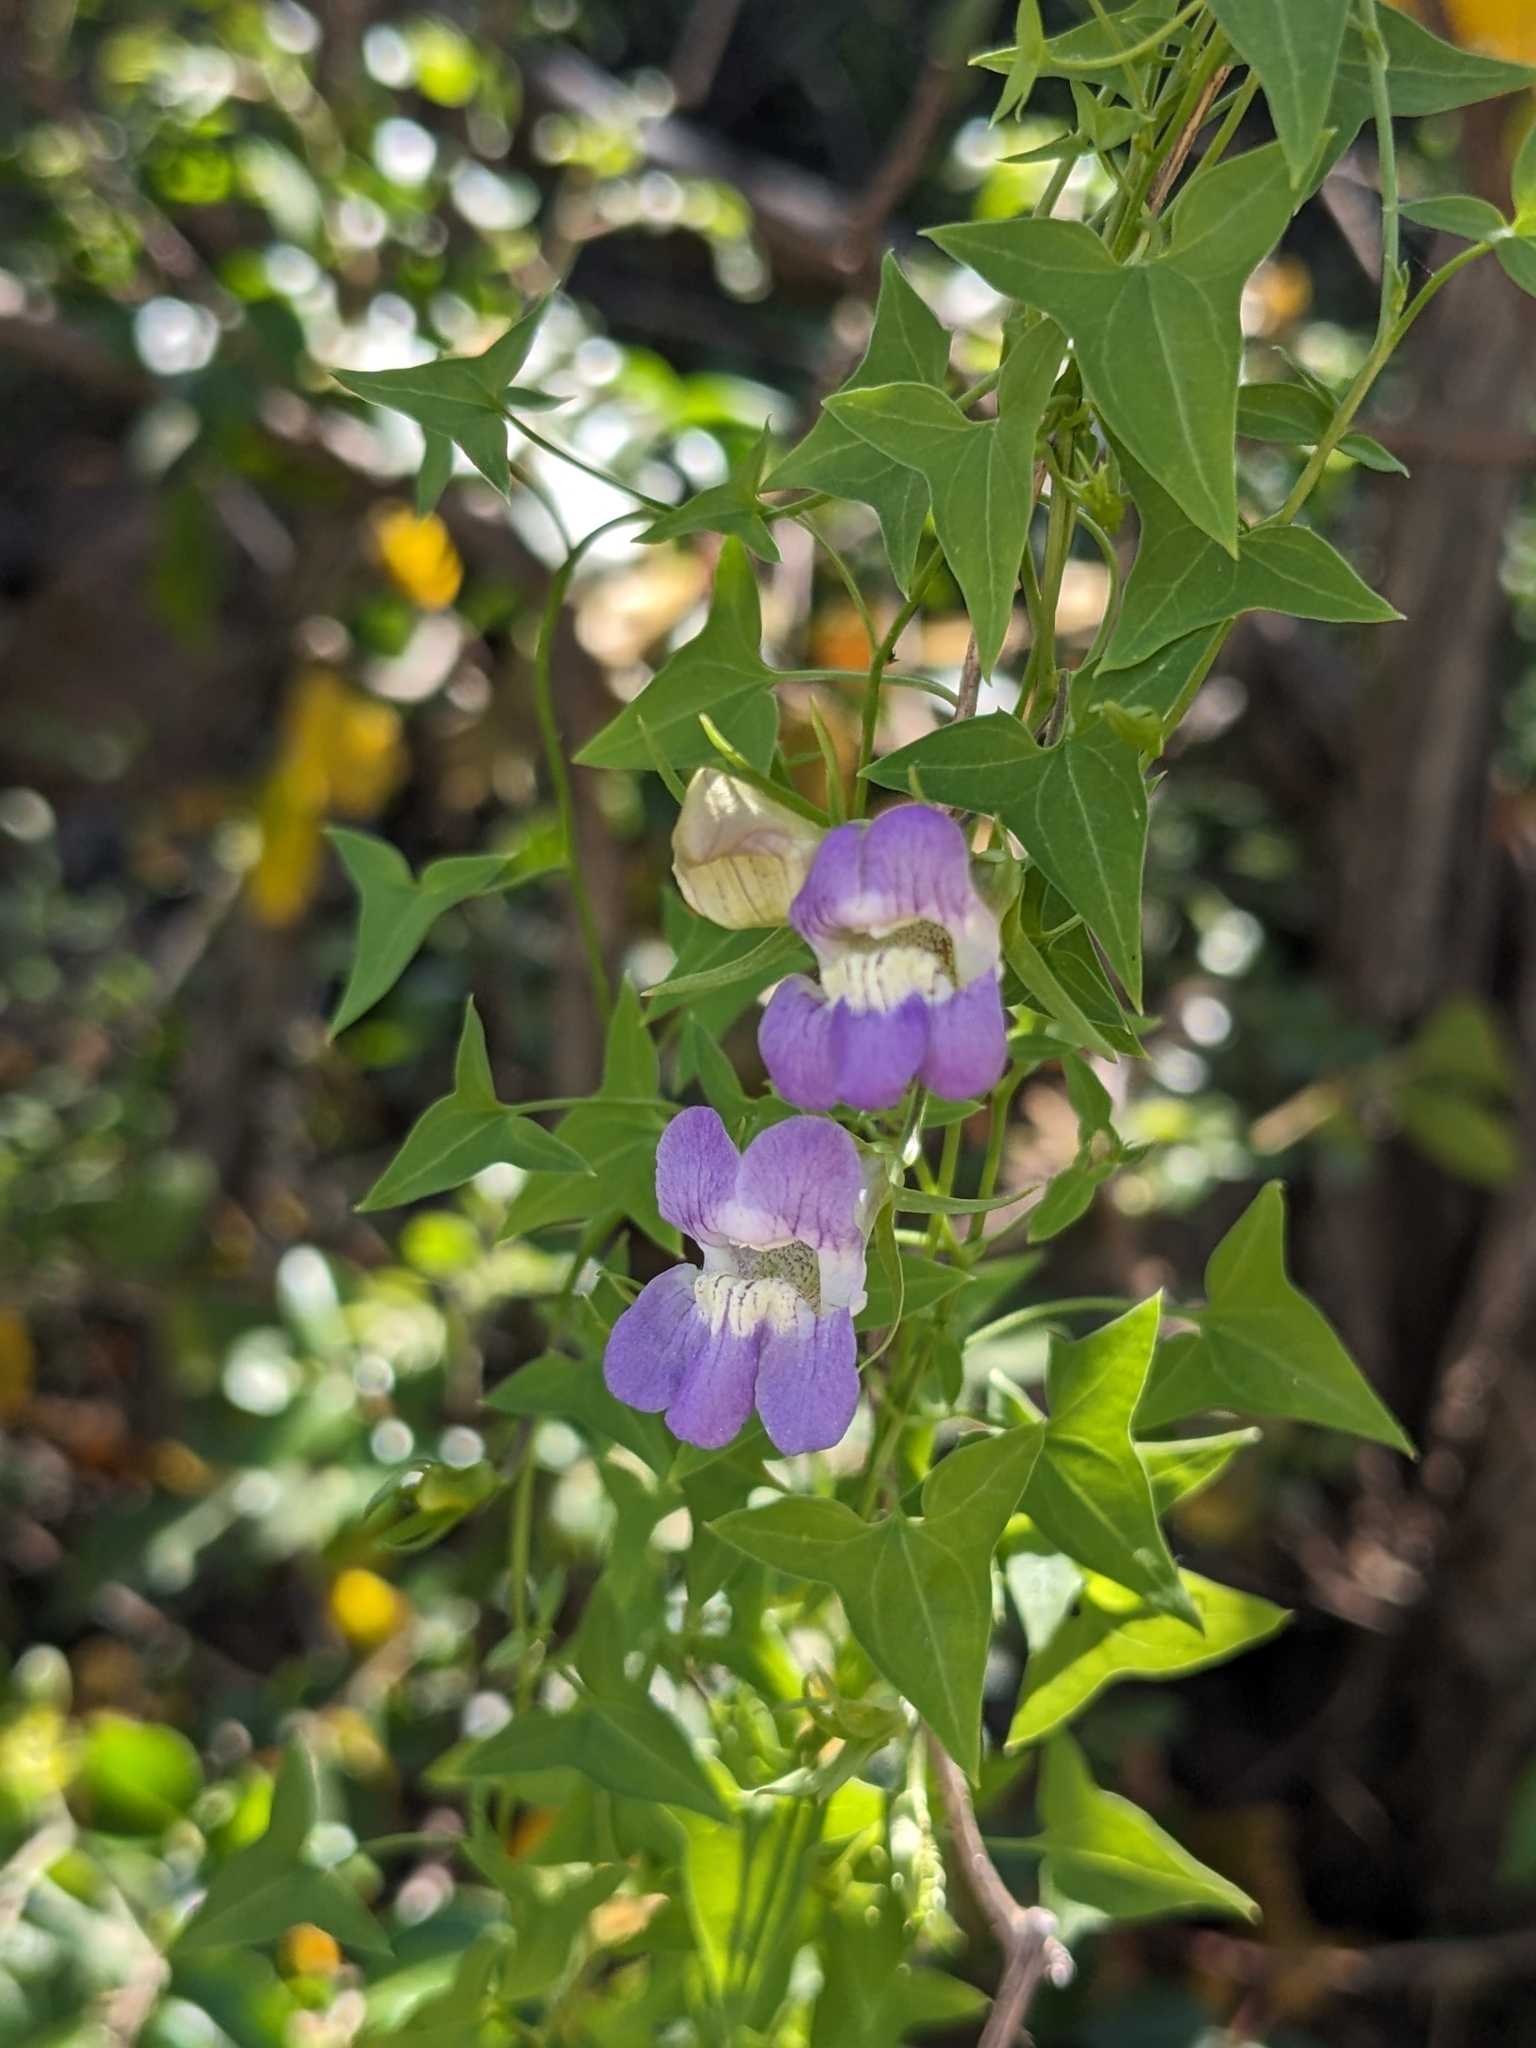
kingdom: Plantae
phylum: Tracheophyta
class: Magnoliopsida
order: Lamiales
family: Plantaginaceae
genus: Maurandella
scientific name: Maurandella antirrhiniflora
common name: Violet twining-snapdragon
